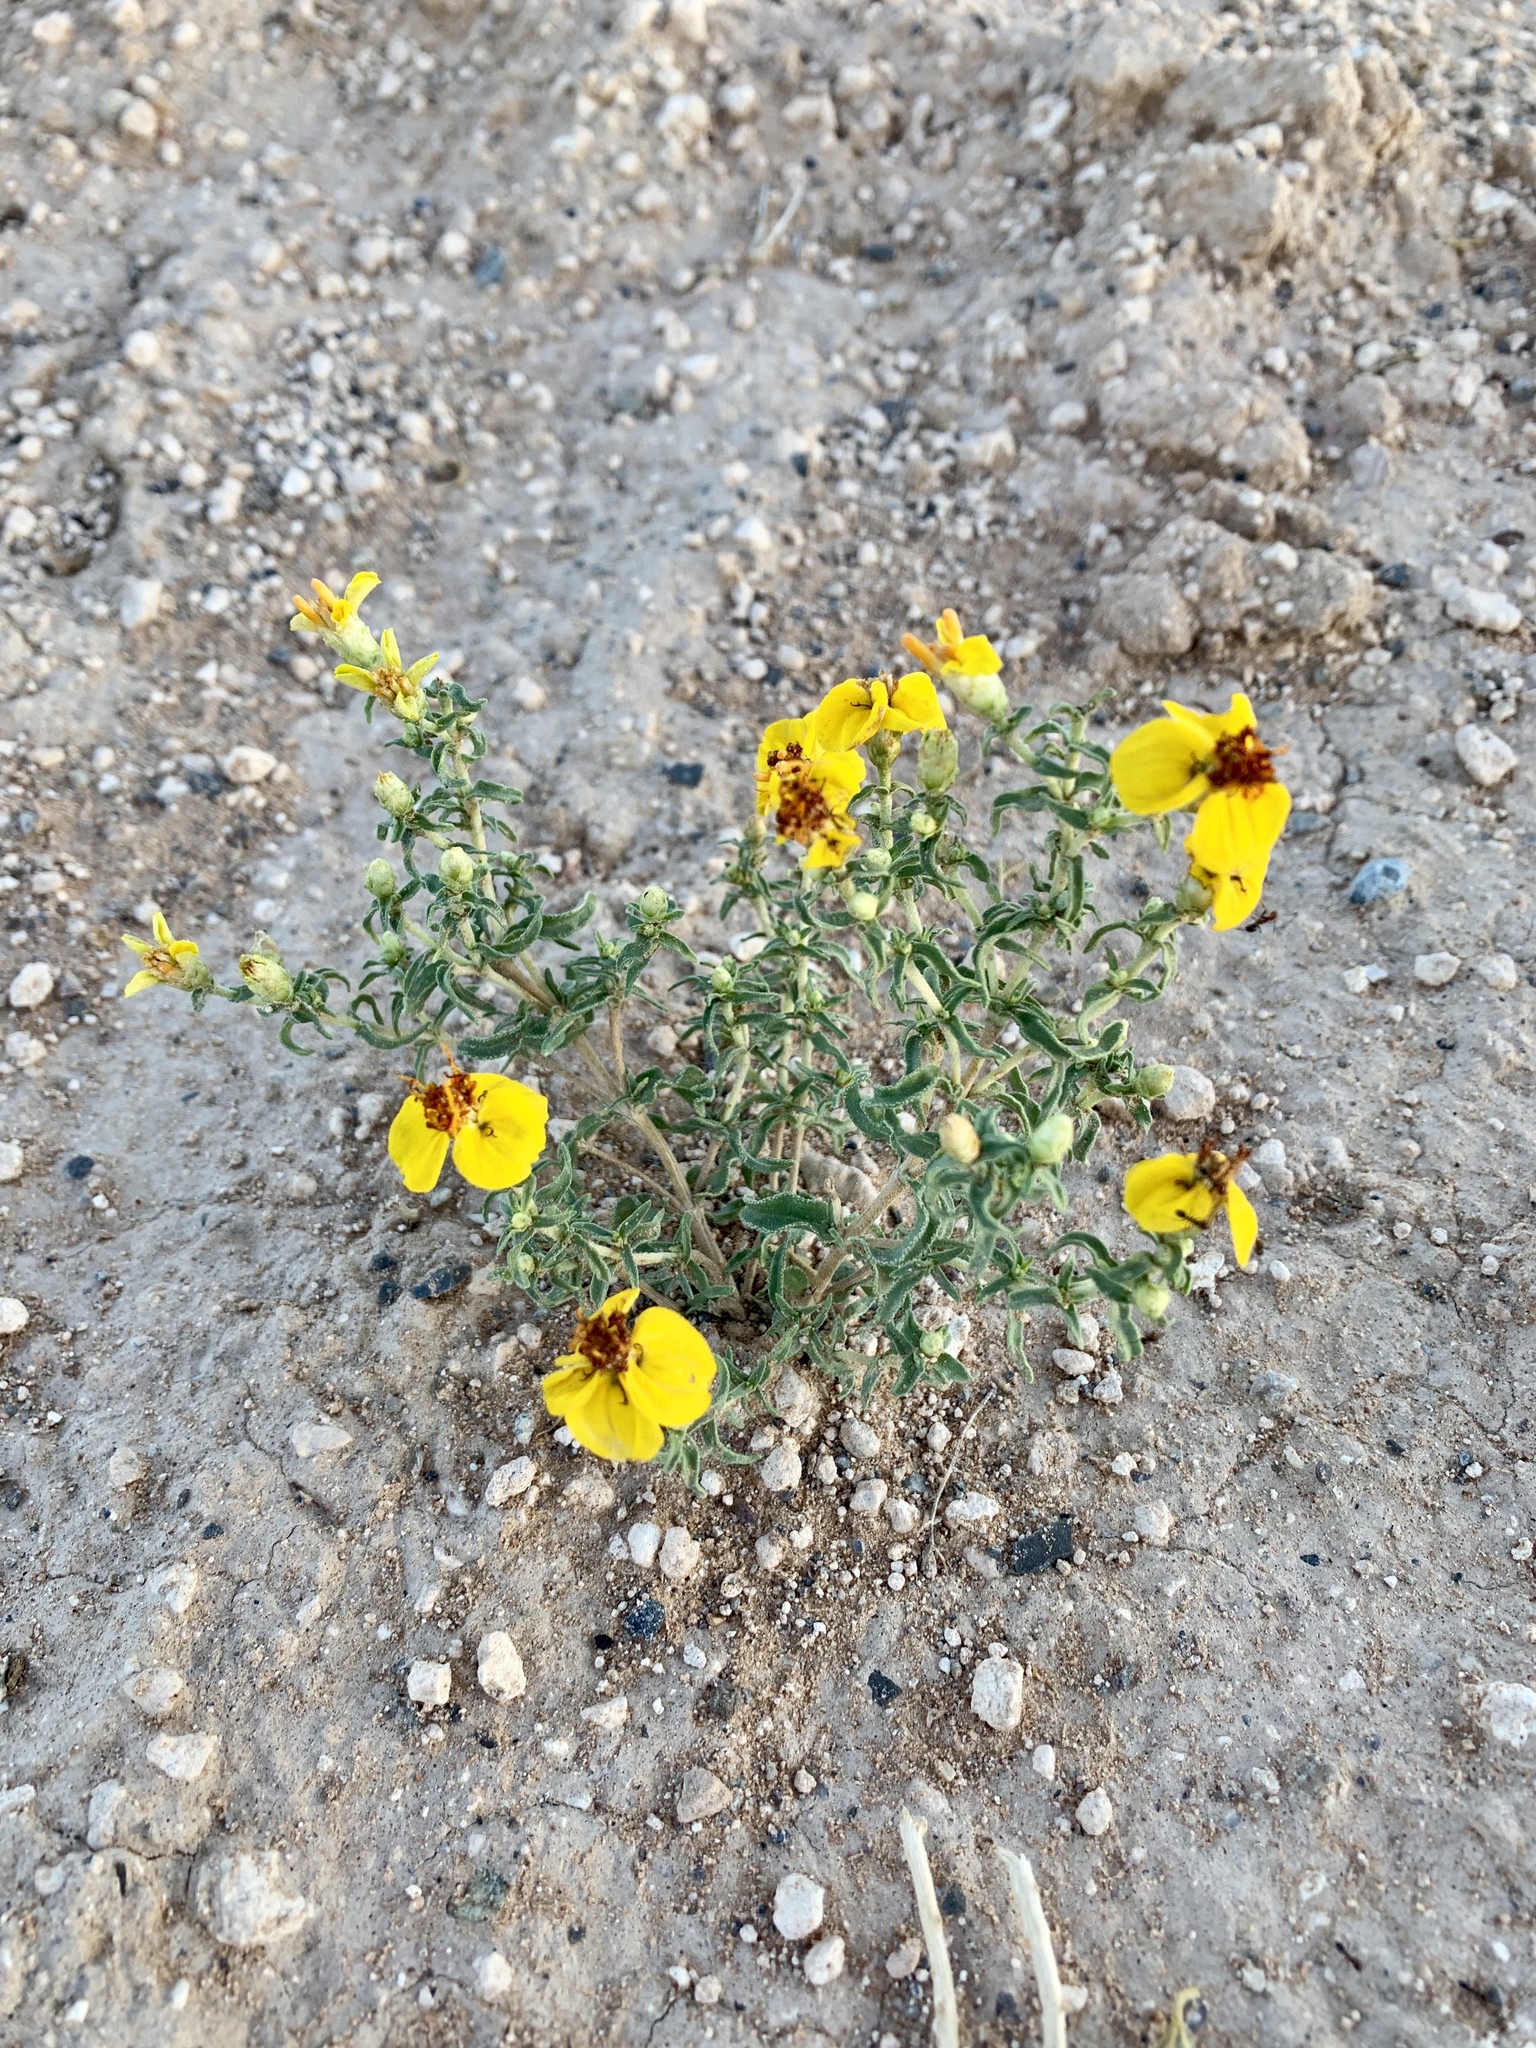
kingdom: Plantae
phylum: Tracheophyta
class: Magnoliopsida
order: Asterales
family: Asteraceae
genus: Zinnia
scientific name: Zinnia grandiflora
